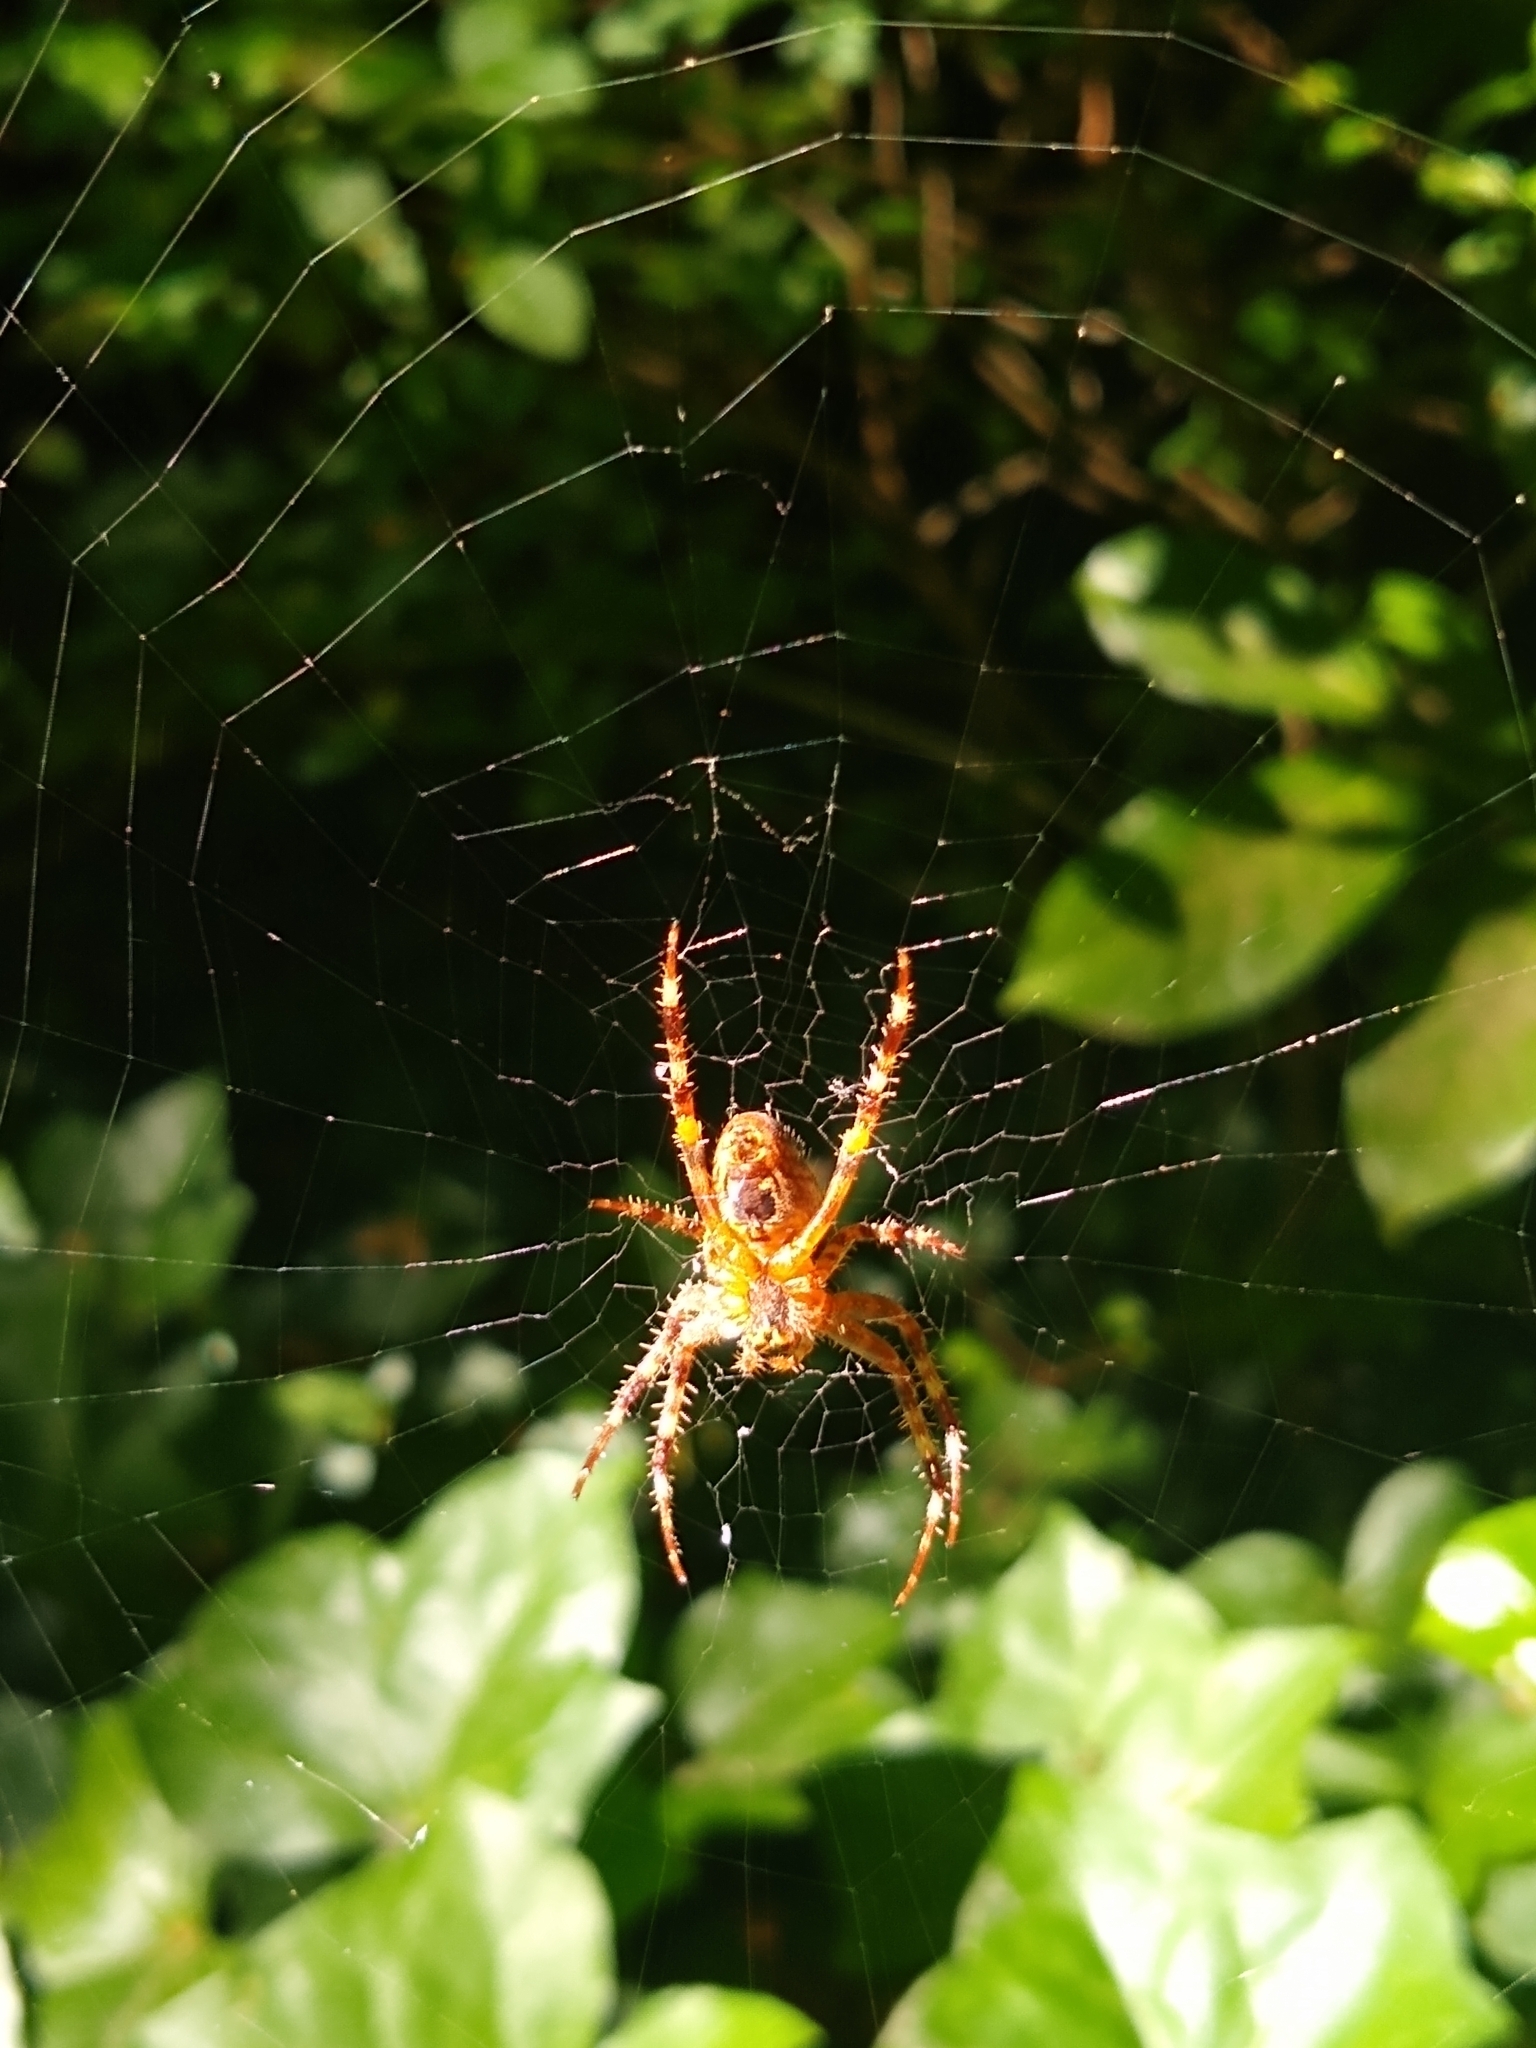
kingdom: Animalia
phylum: Arthropoda
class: Arachnida
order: Araneae
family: Araneidae
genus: Araneus
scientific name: Araneus diadematus
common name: Cross orbweaver
